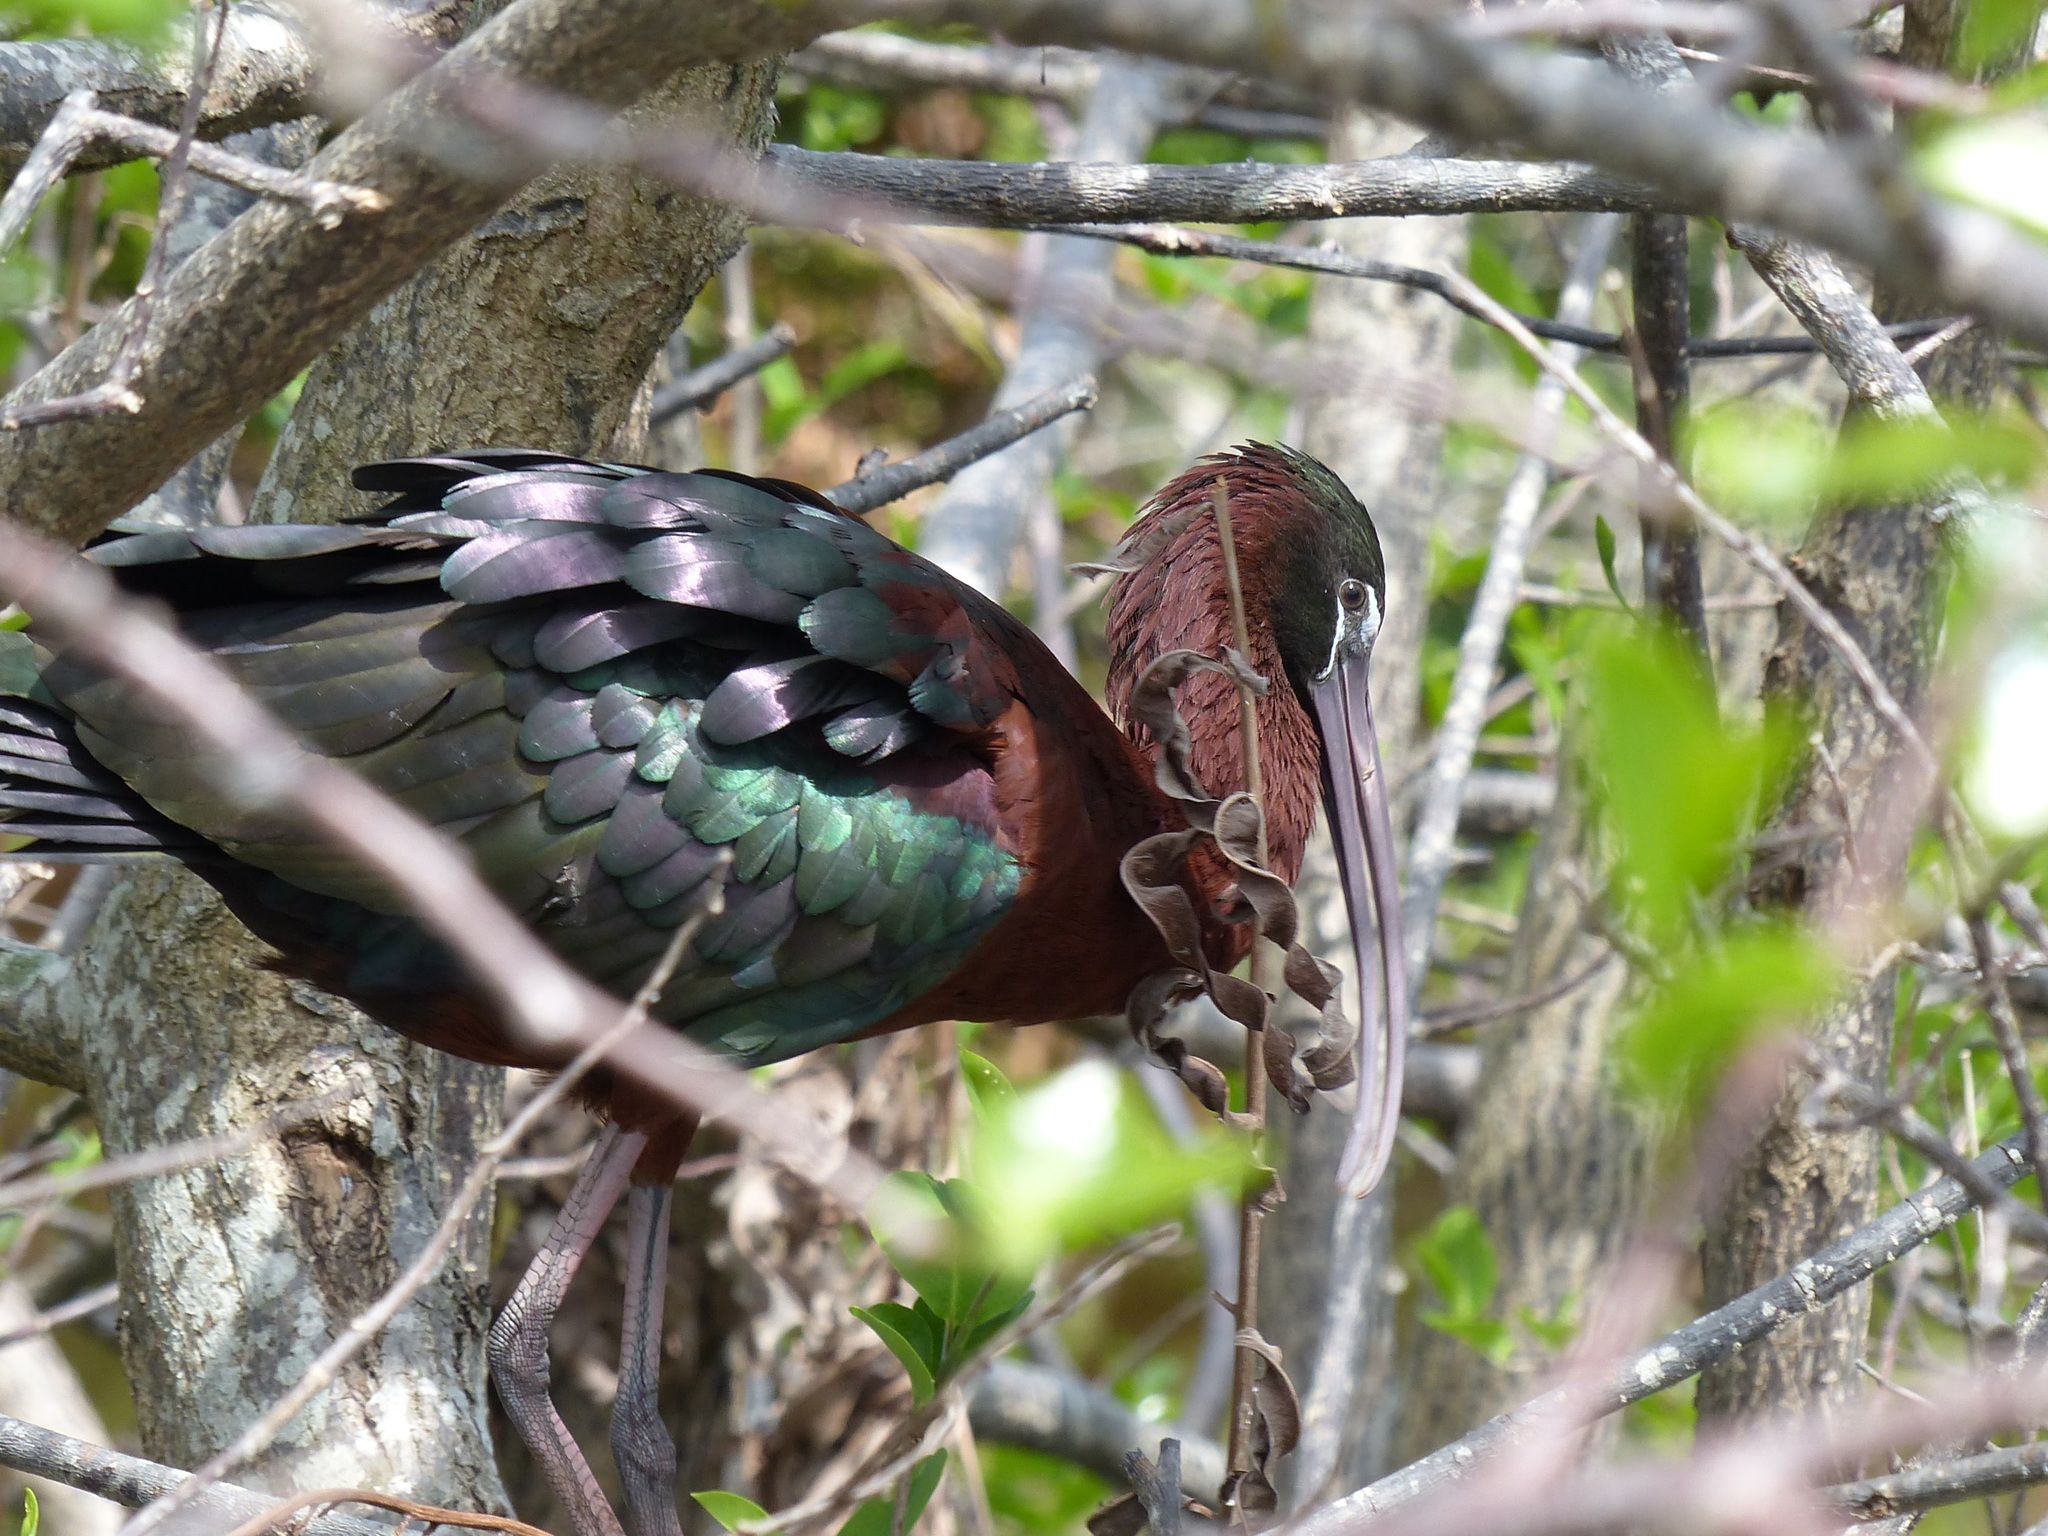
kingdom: Animalia
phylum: Chordata
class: Aves
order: Pelecaniformes
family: Threskiornithidae
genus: Plegadis
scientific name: Plegadis falcinellus
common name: Glossy ibis
